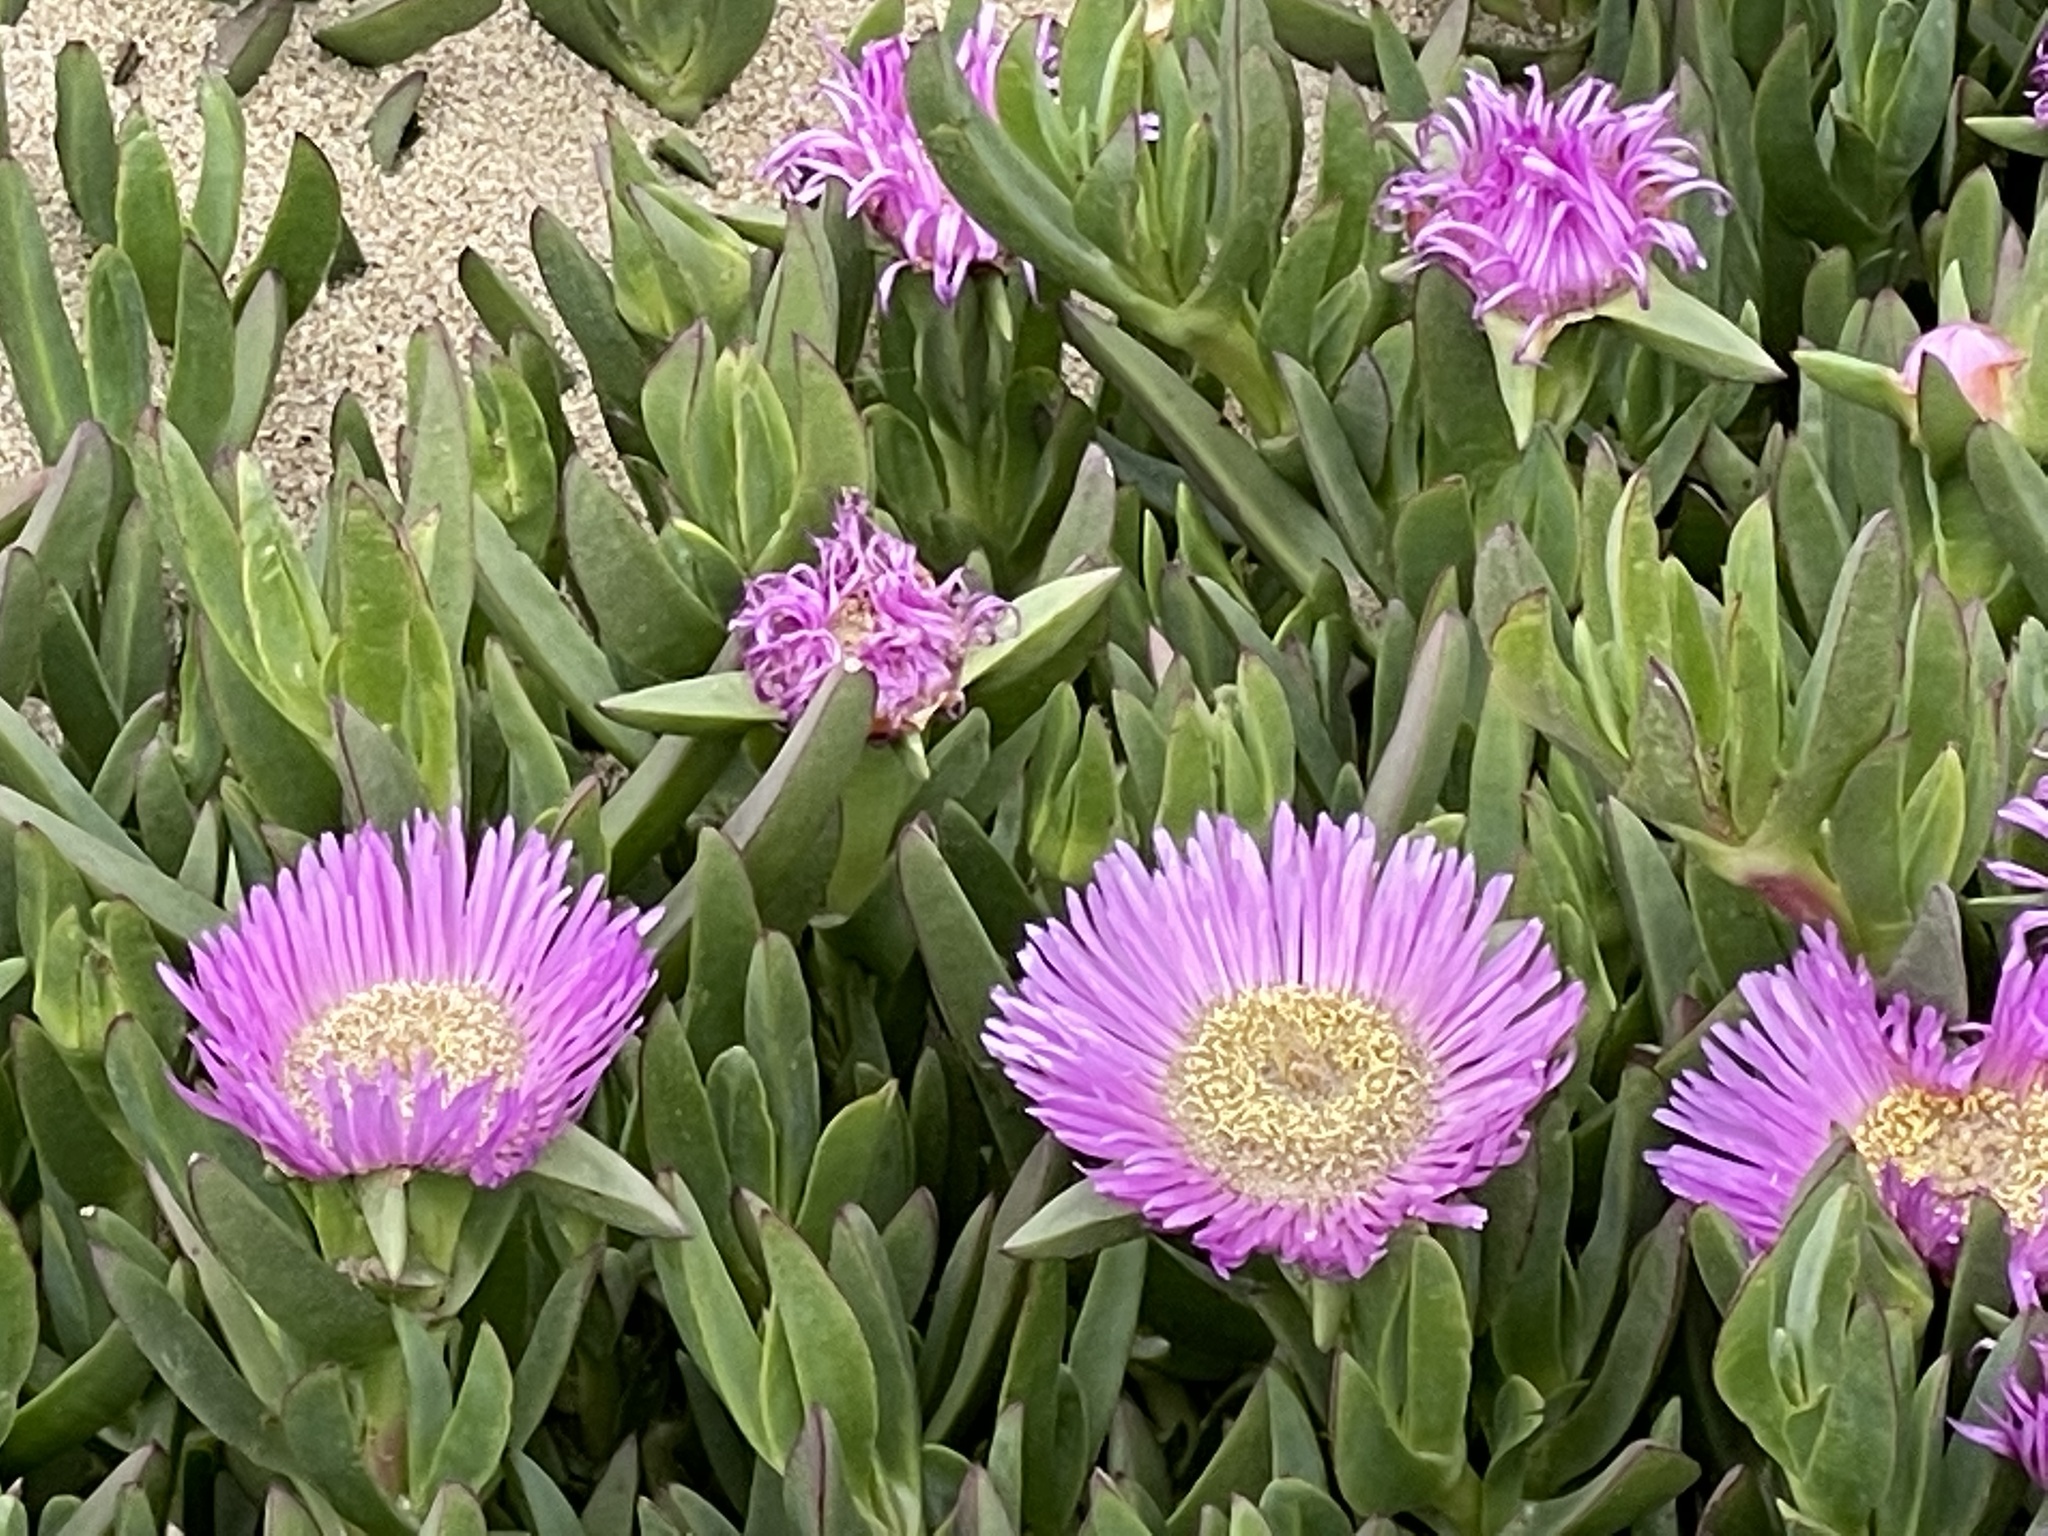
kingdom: Plantae
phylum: Tracheophyta
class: Magnoliopsida
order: Caryophyllales
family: Aizoaceae
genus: Carpobrotus
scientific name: Carpobrotus chilensis
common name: Sea fig
